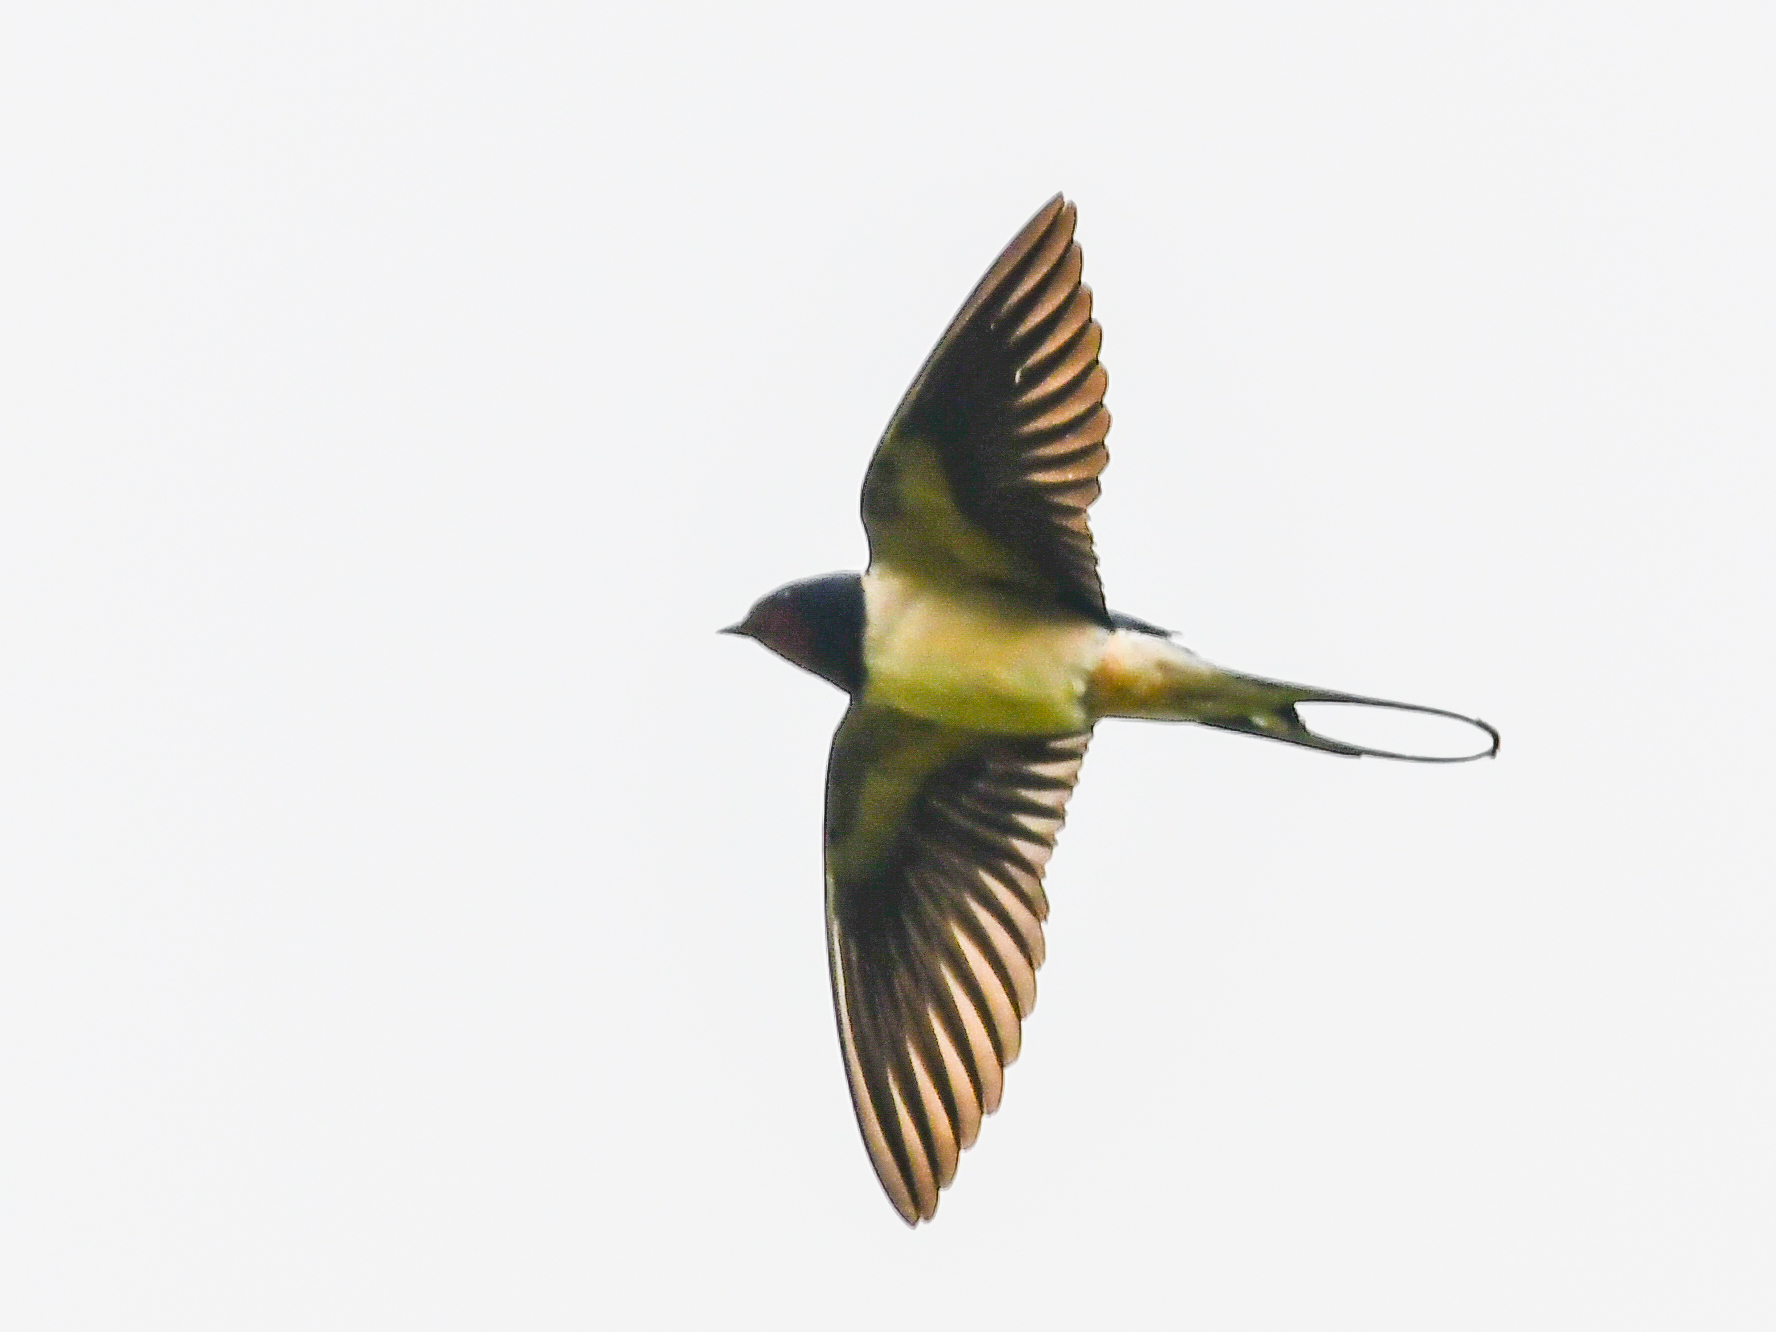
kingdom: Animalia
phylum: Chordata
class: Aves
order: Passeriformes
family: Hirundinidae
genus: Hirundo
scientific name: Hirundo rustica
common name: Barn swallow
